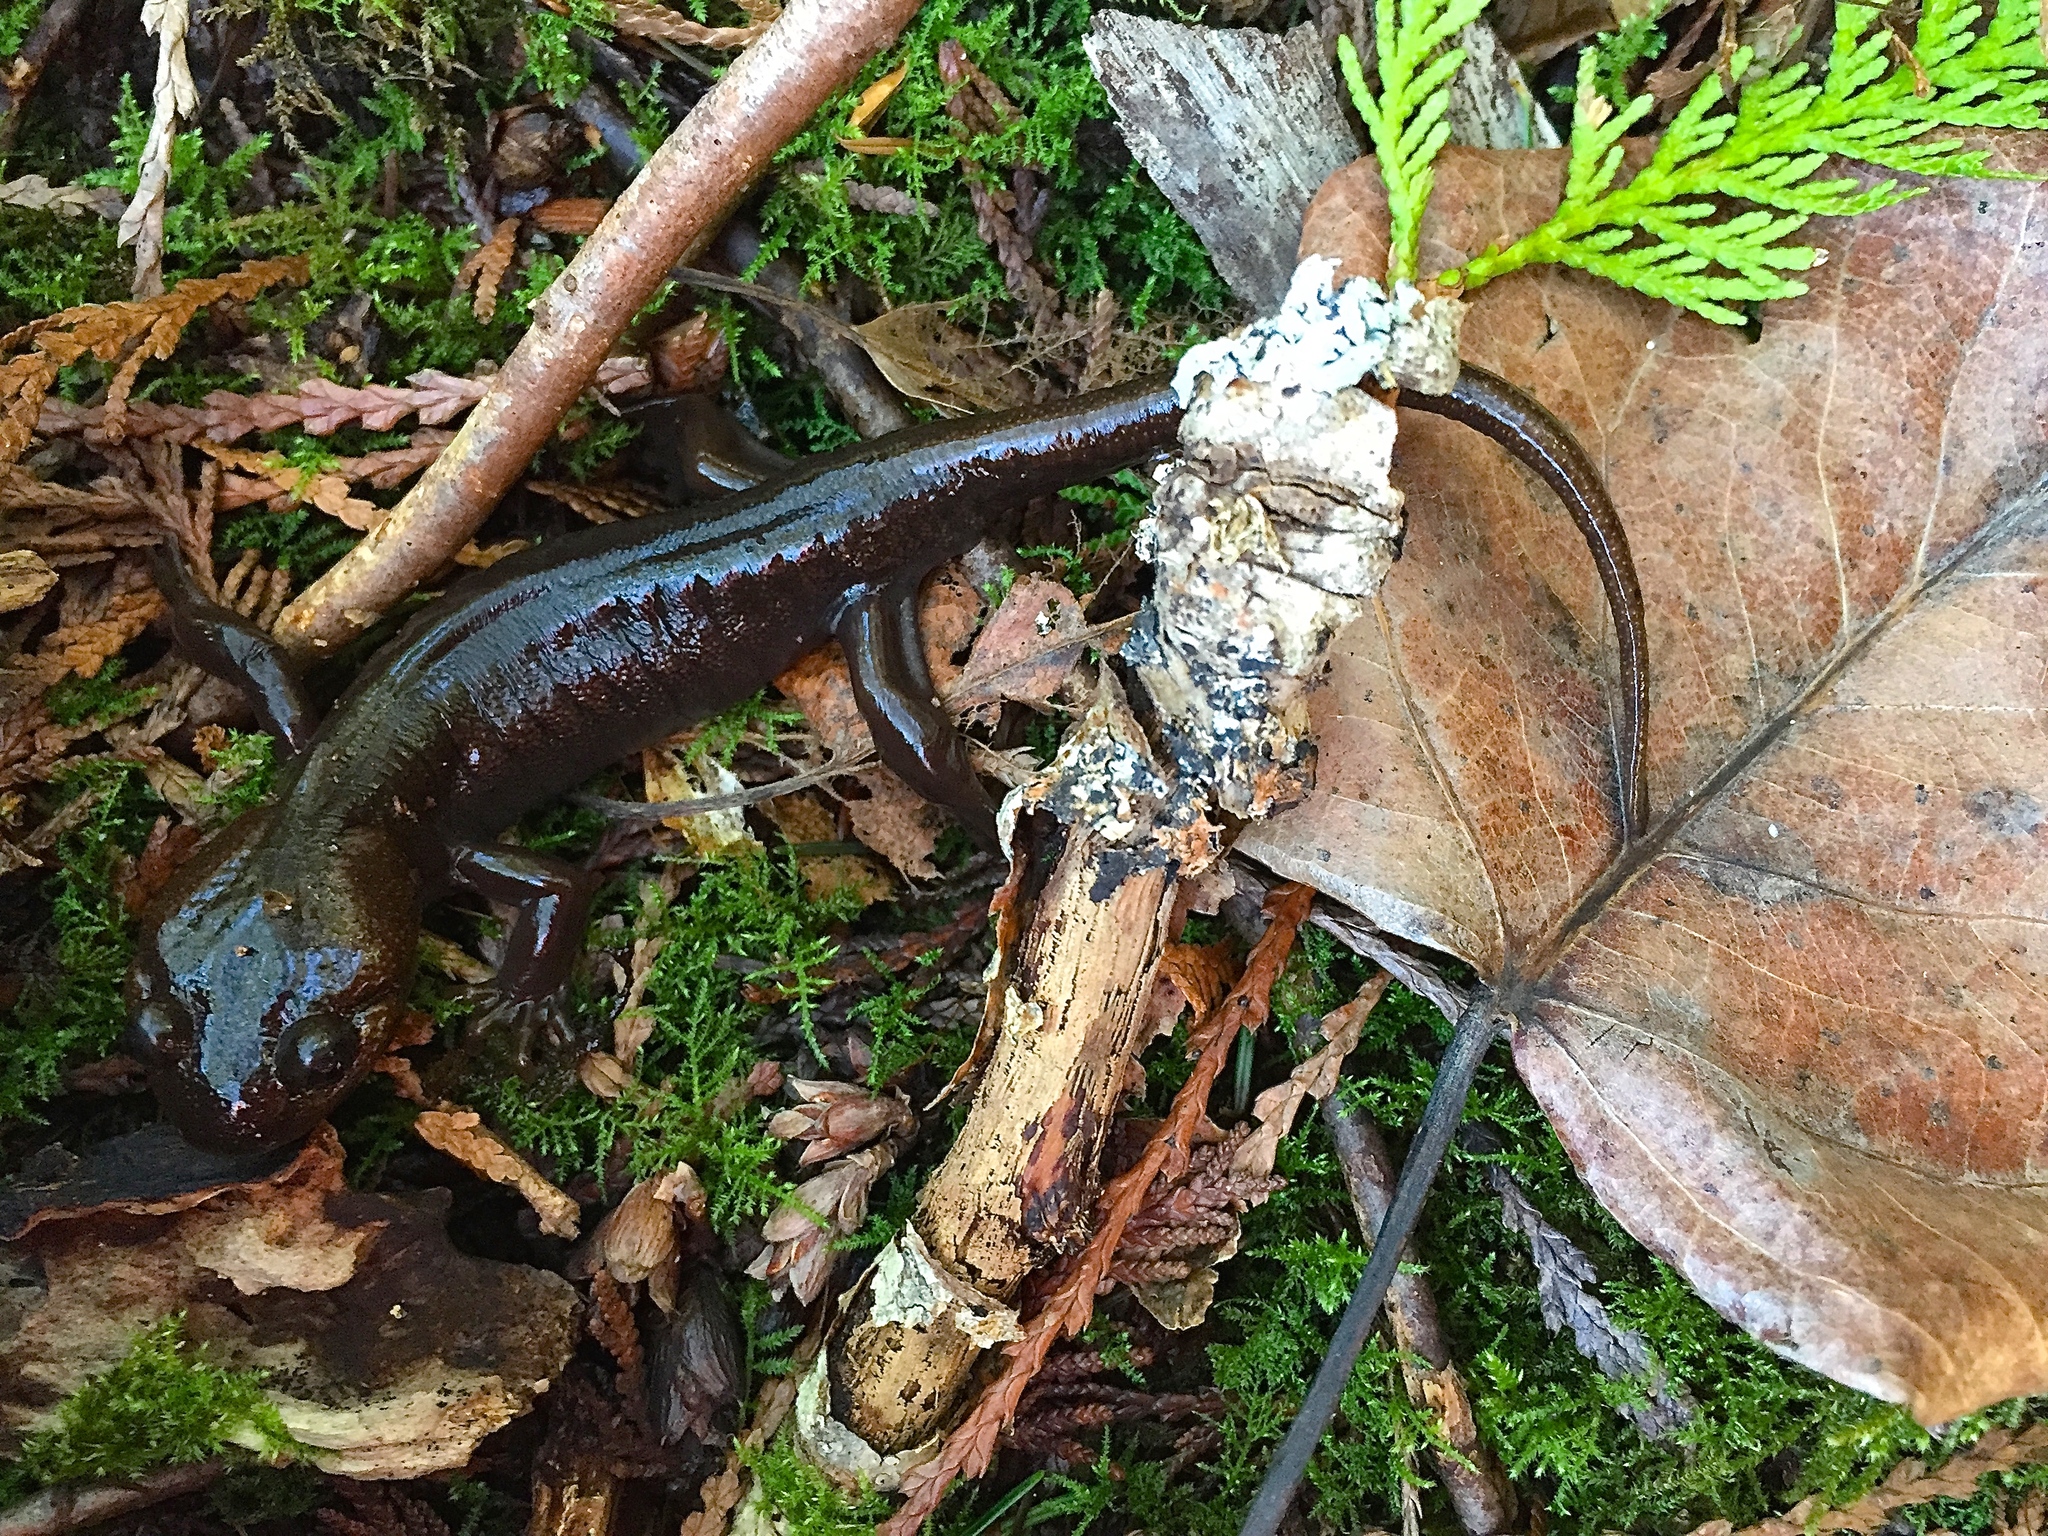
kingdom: Animalia
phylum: Chordata
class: Amphibia
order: Caudata
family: Ambystomatidae
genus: Ambystoma
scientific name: Ambystoma gracile
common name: Northwestern salamander
